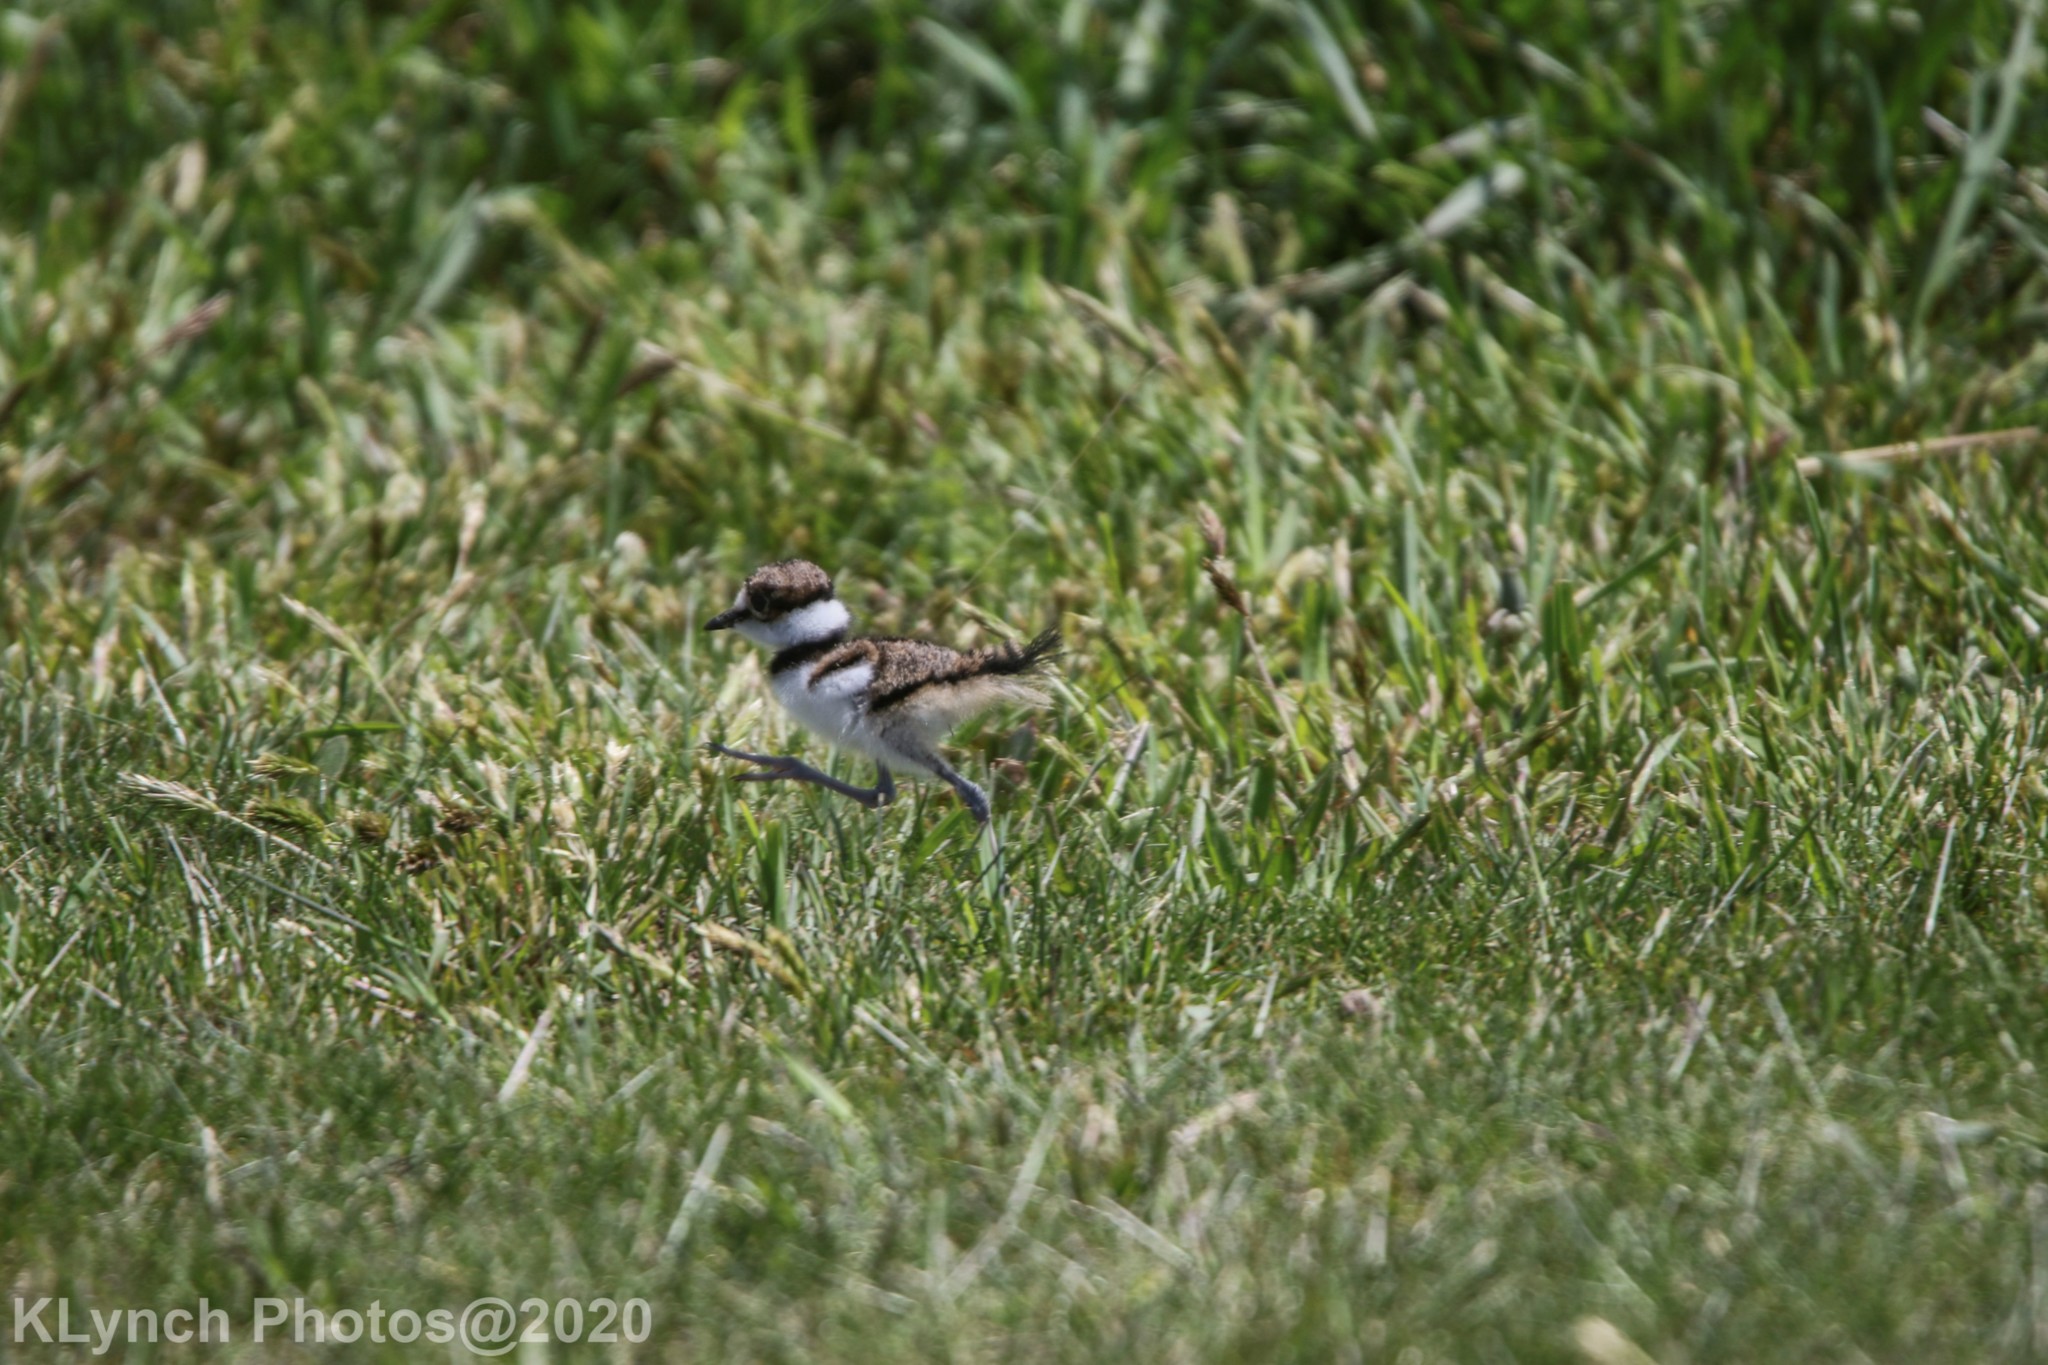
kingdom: Animalia
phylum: Chordata
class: Aves
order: Charadriiformes
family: Charadriidae
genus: Charadrius
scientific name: Charadrius vociferus
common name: Killdeer
